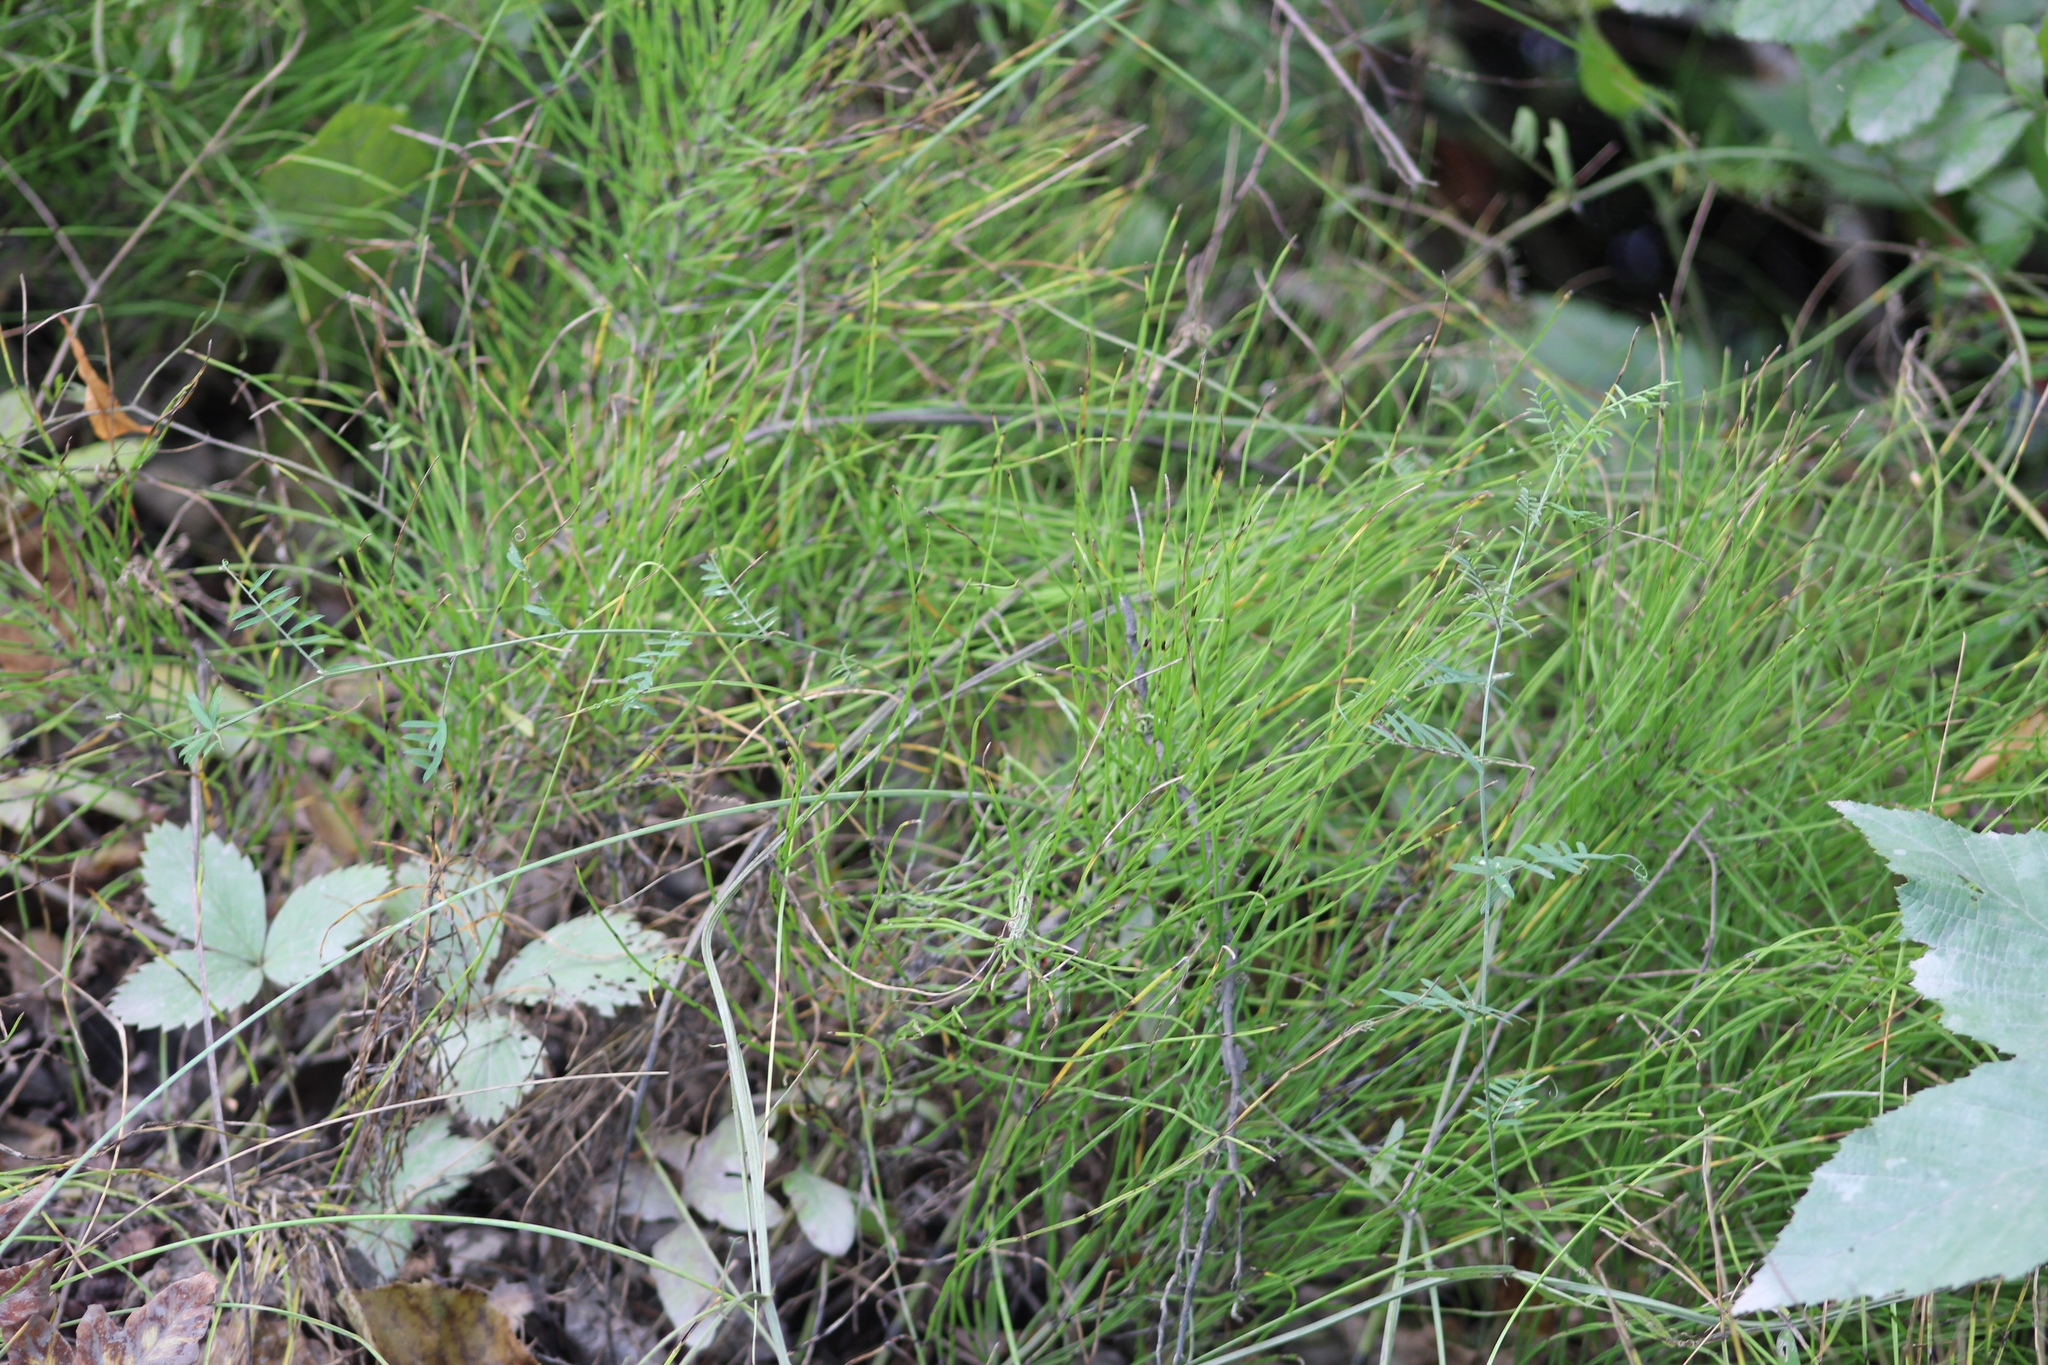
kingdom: Plantae
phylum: Tracheophyta
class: Polypodiopsida
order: Equisetales
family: Equisetaceae
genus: Equisetum
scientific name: Equisetum arvense
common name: Field horsetail
